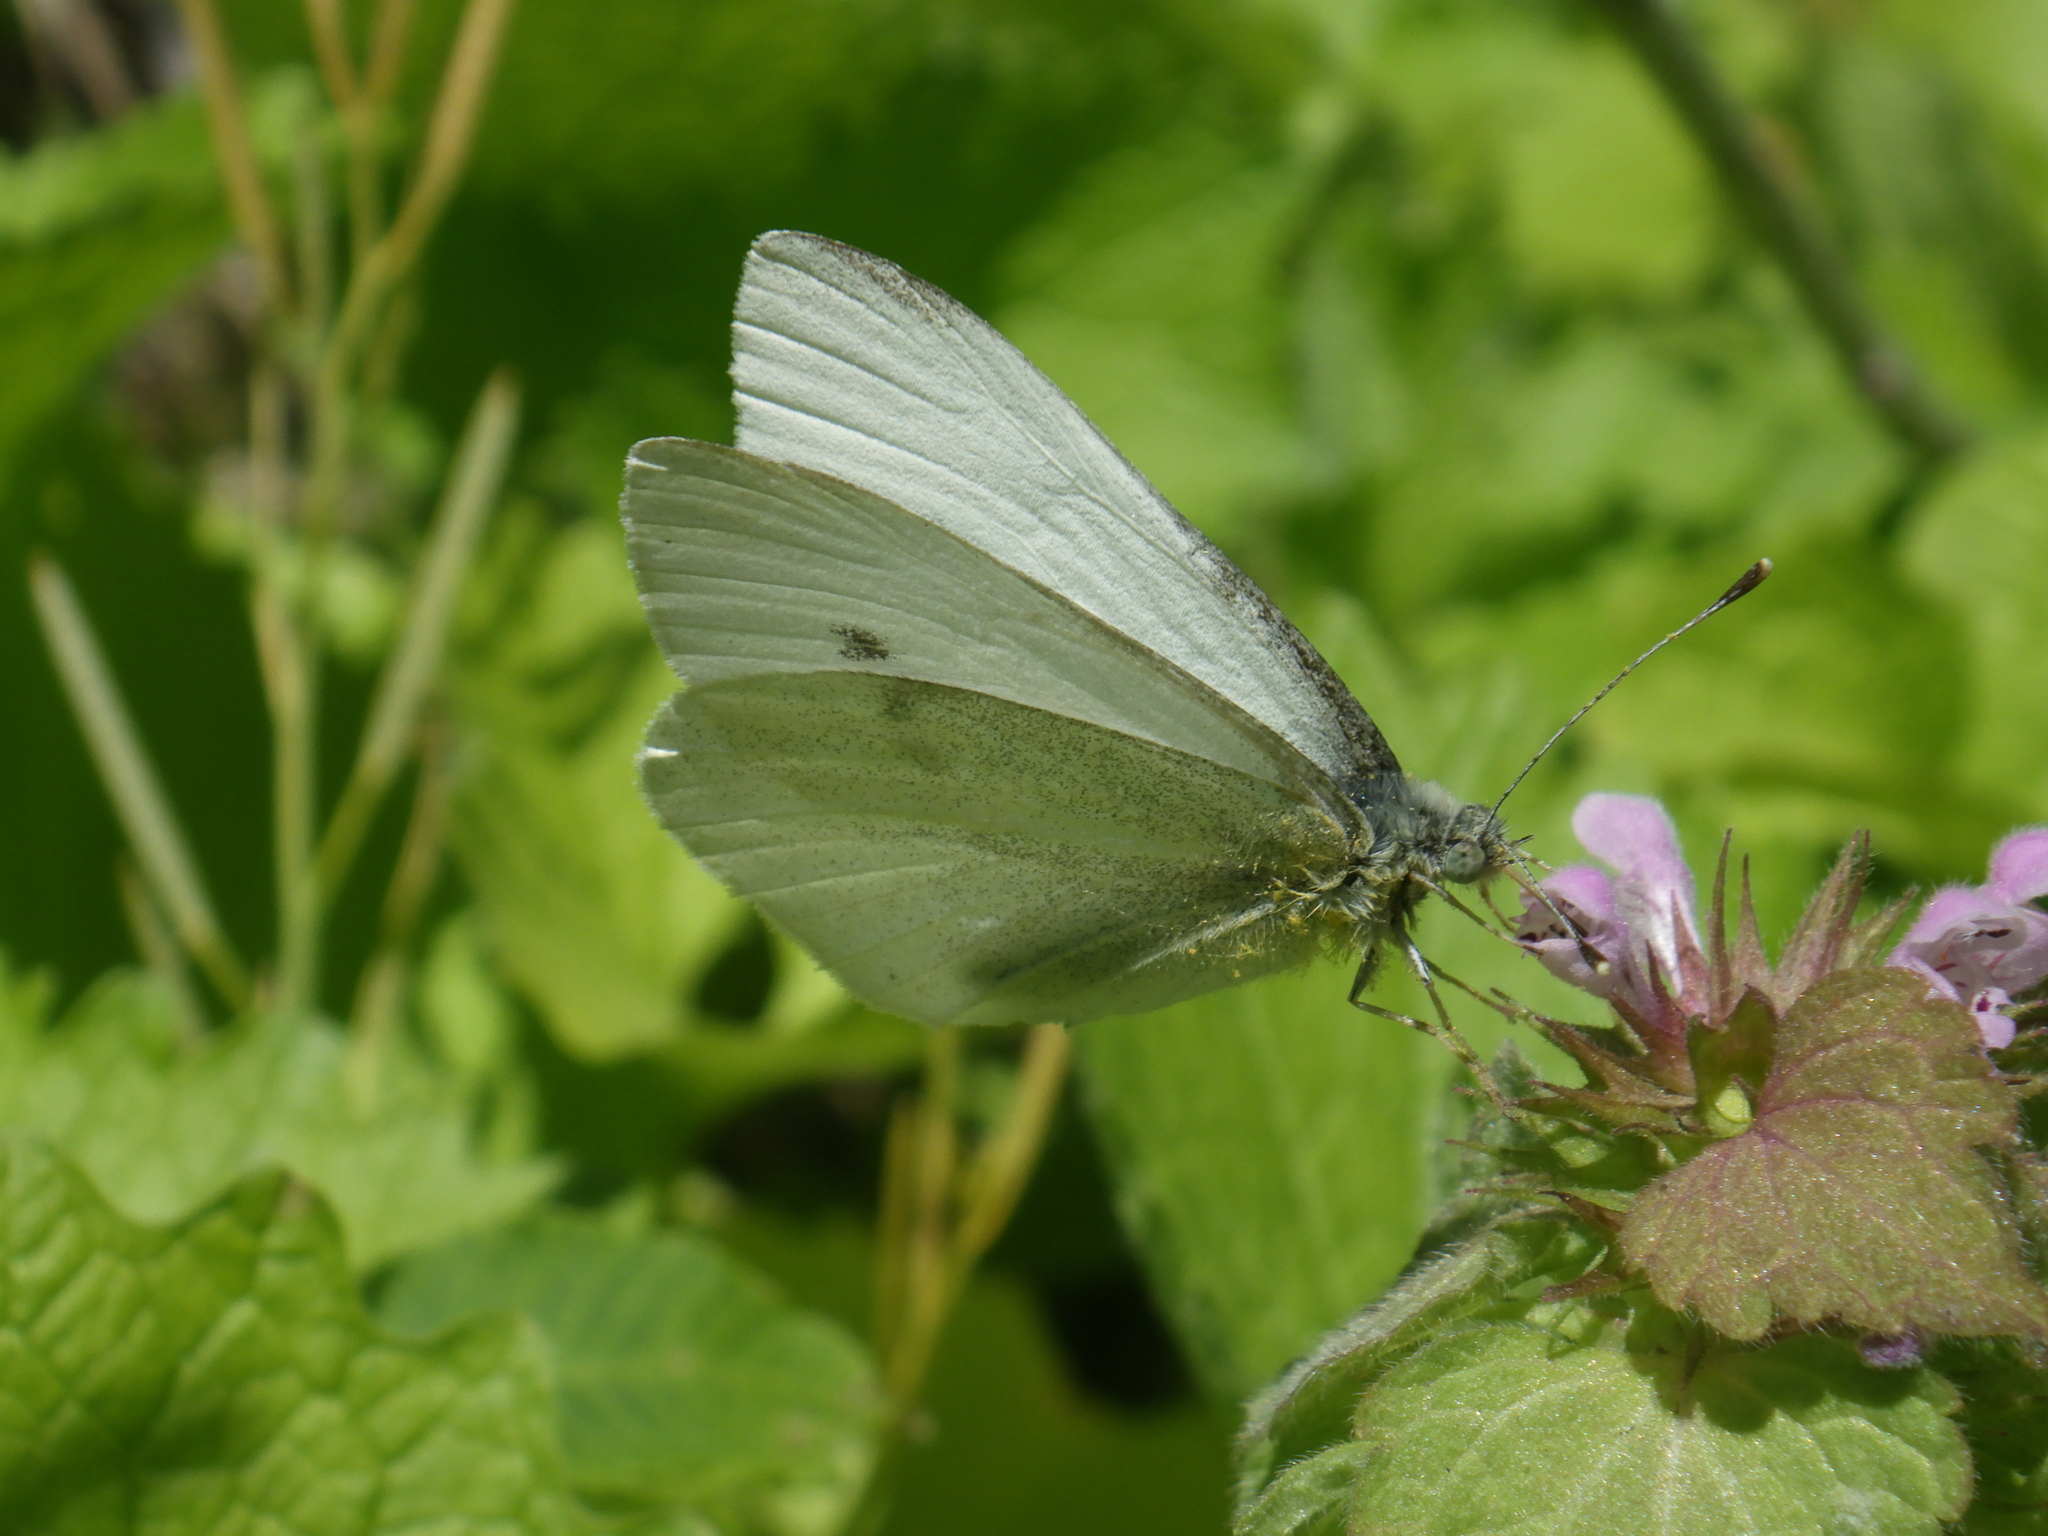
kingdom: Animalia
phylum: Arthropoda
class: Insecta
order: Lepidoptera
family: Pieridae
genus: Pieris
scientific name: Pieris rapae
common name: Small white
